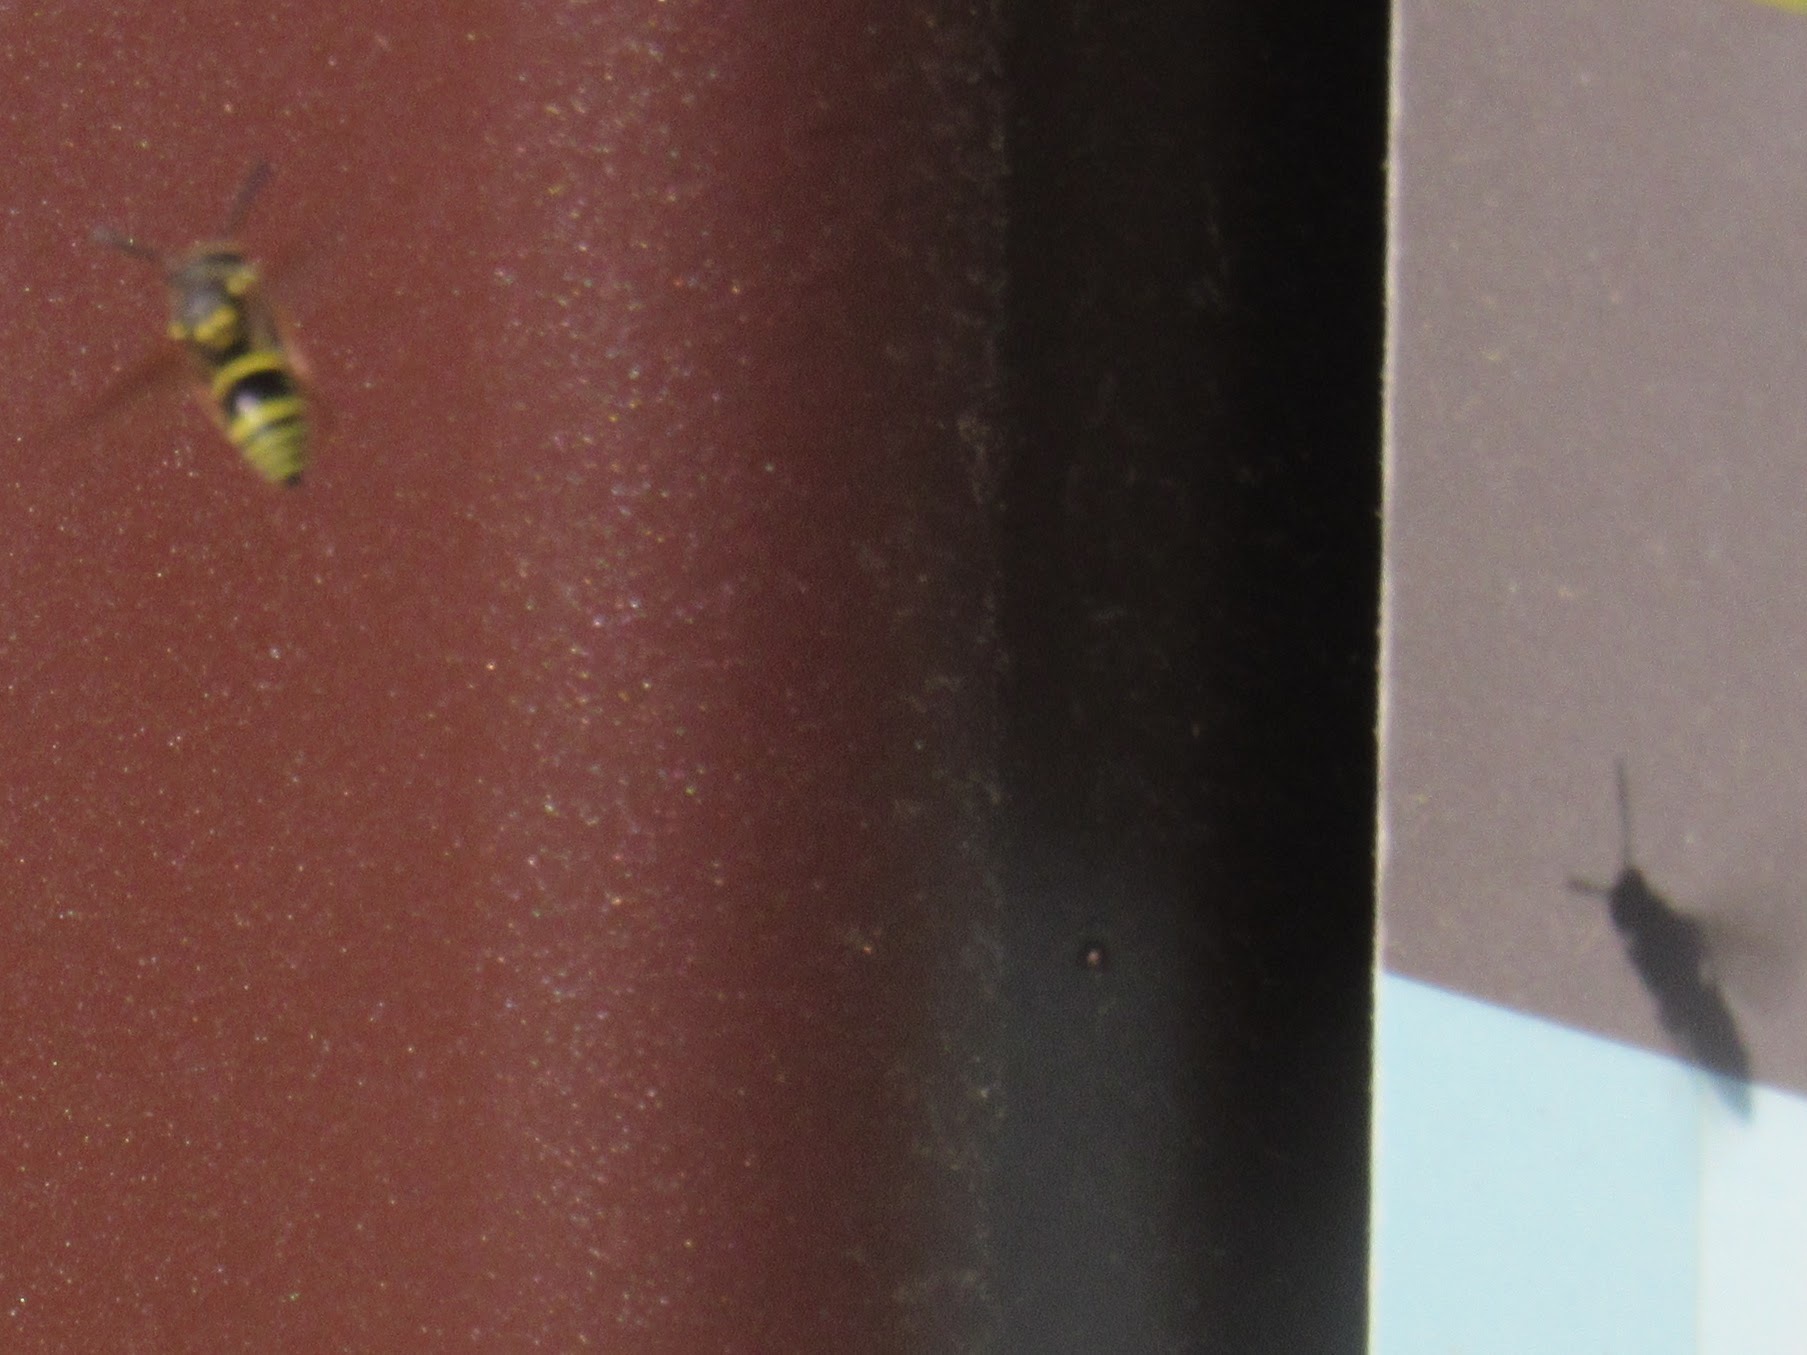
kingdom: Animalia
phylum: Arthropoda
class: Insecta
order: Hymenoptera
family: Vespidae
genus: Ancistrocerus
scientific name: Ancistrocerus
